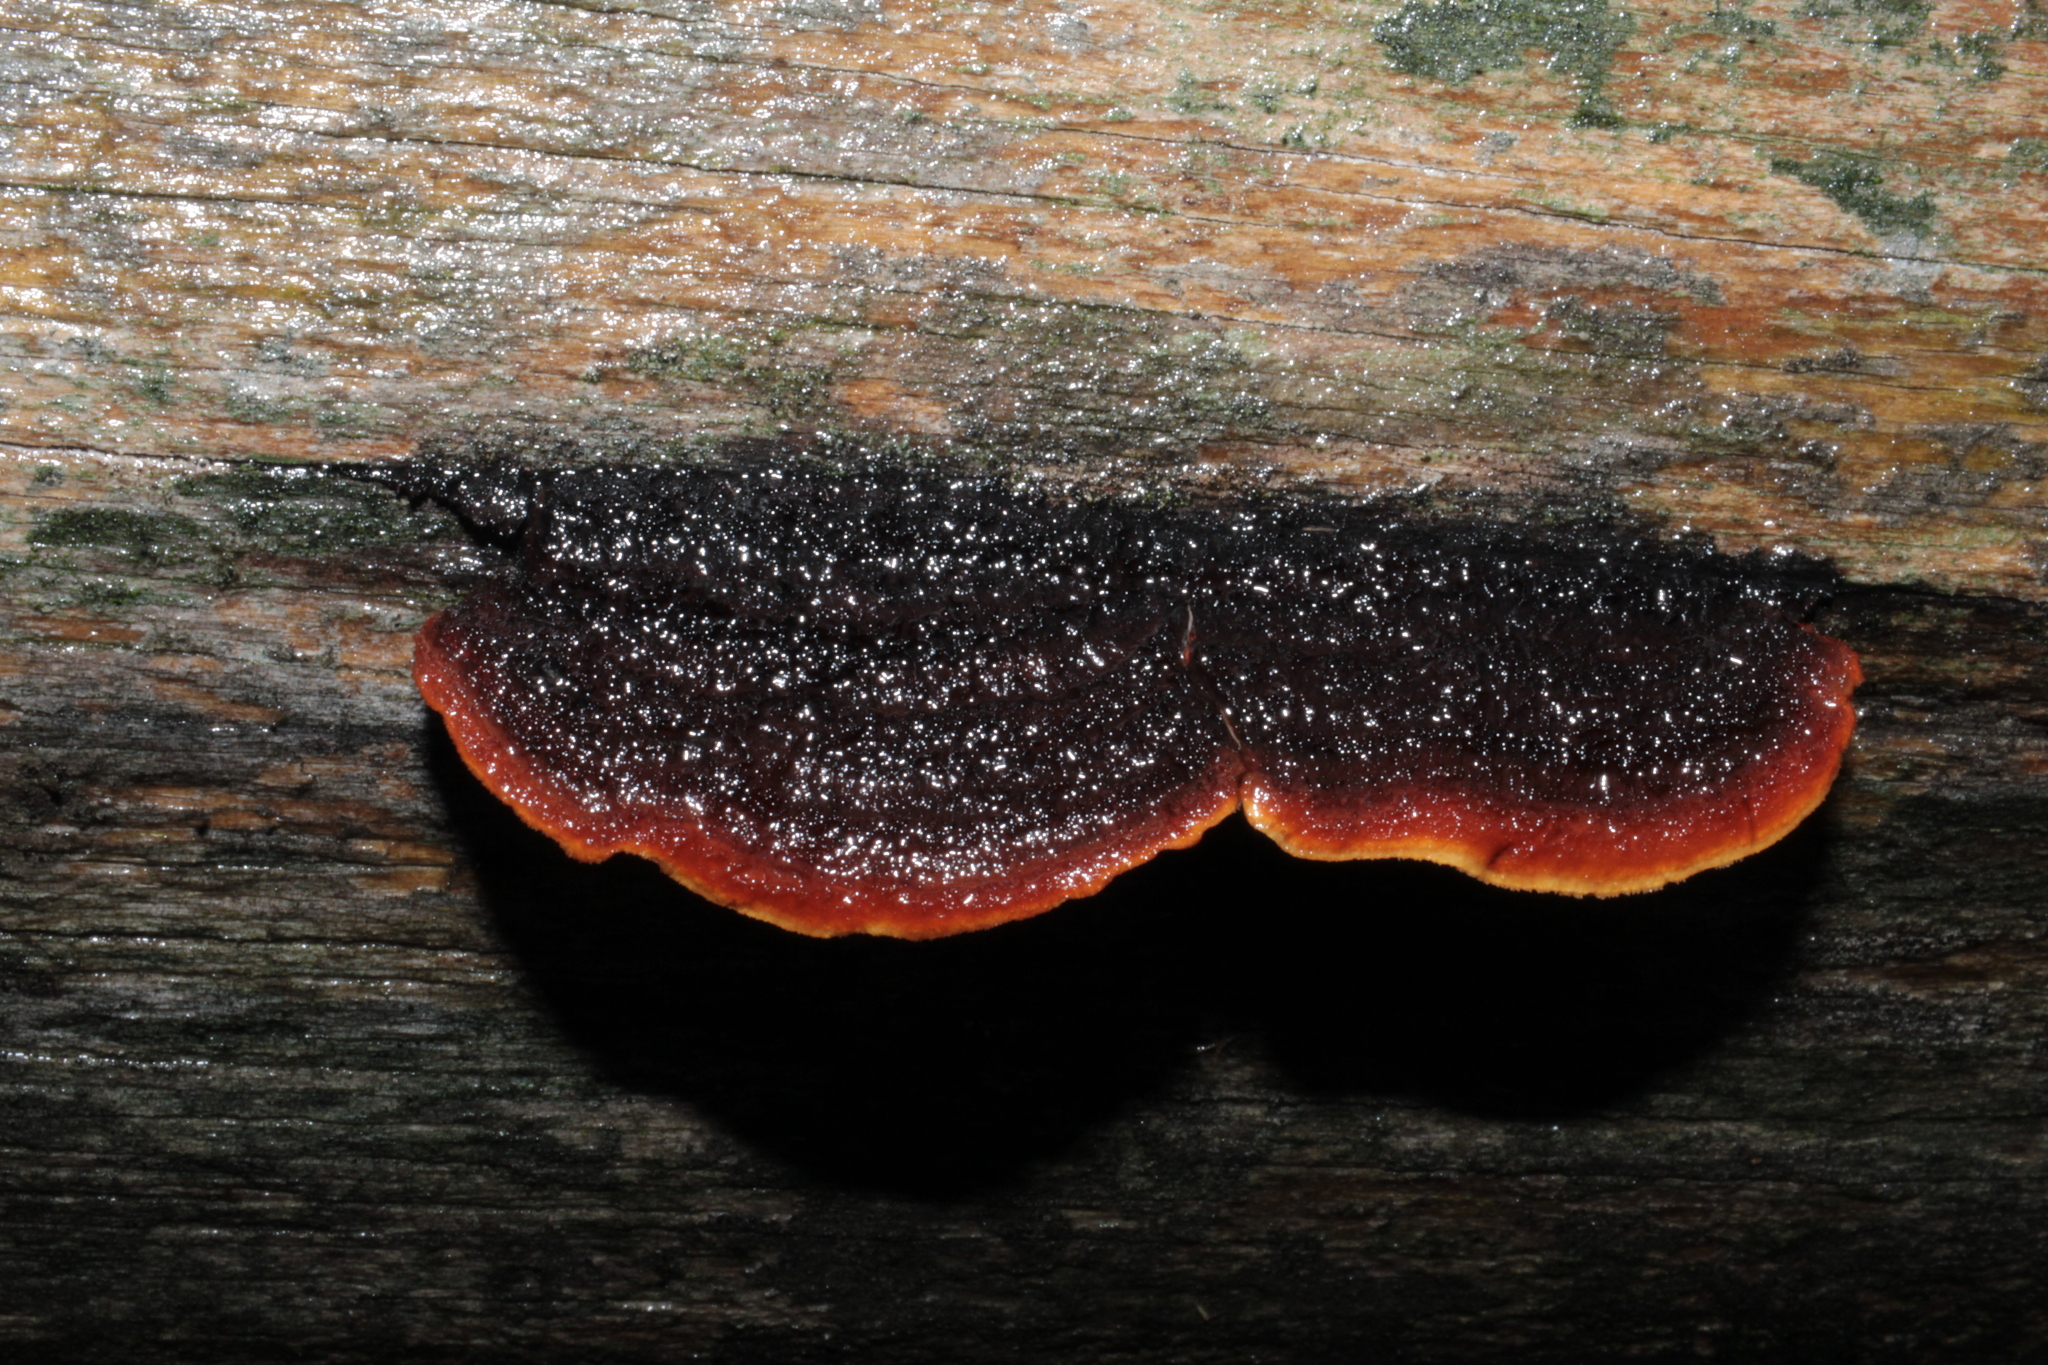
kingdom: Fungi
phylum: Basidiomycota
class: Agaricomycetes
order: Gloeophyllales
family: Gloeophyllaceae
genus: Gloeophyllum
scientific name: Gloeophyllum sepiarium
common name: Conifer mazegill
